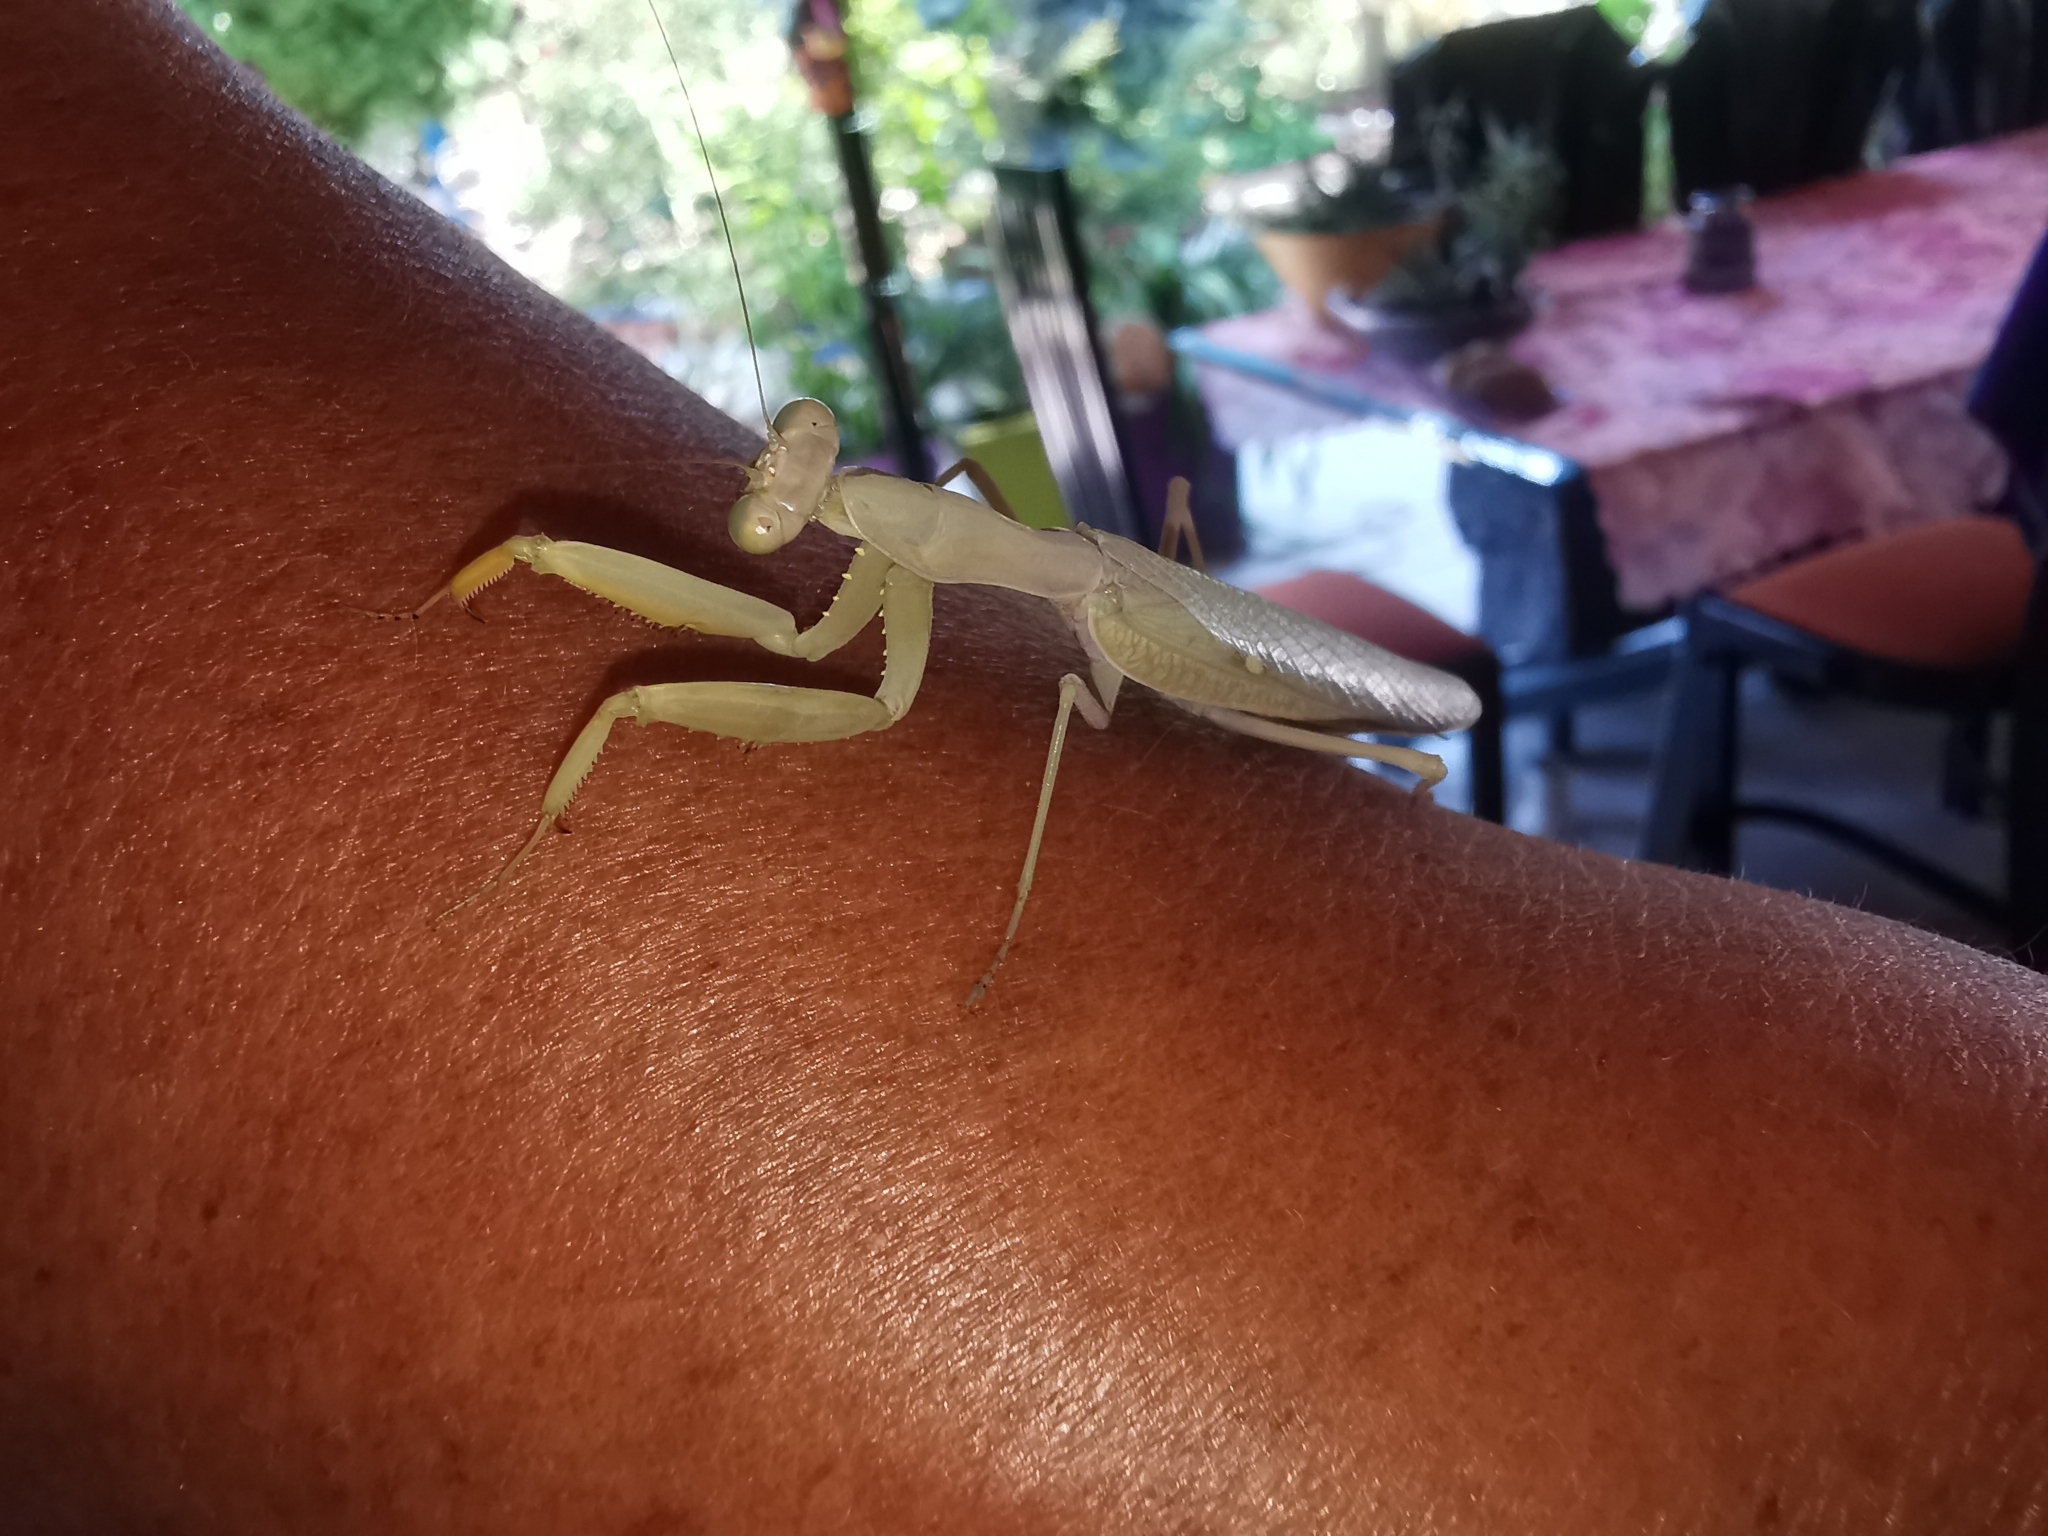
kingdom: Animalia
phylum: Arthropoda
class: Insecta
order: Mantodea
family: Mantidae
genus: Hierodula
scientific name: Hierodula transcaucasica
